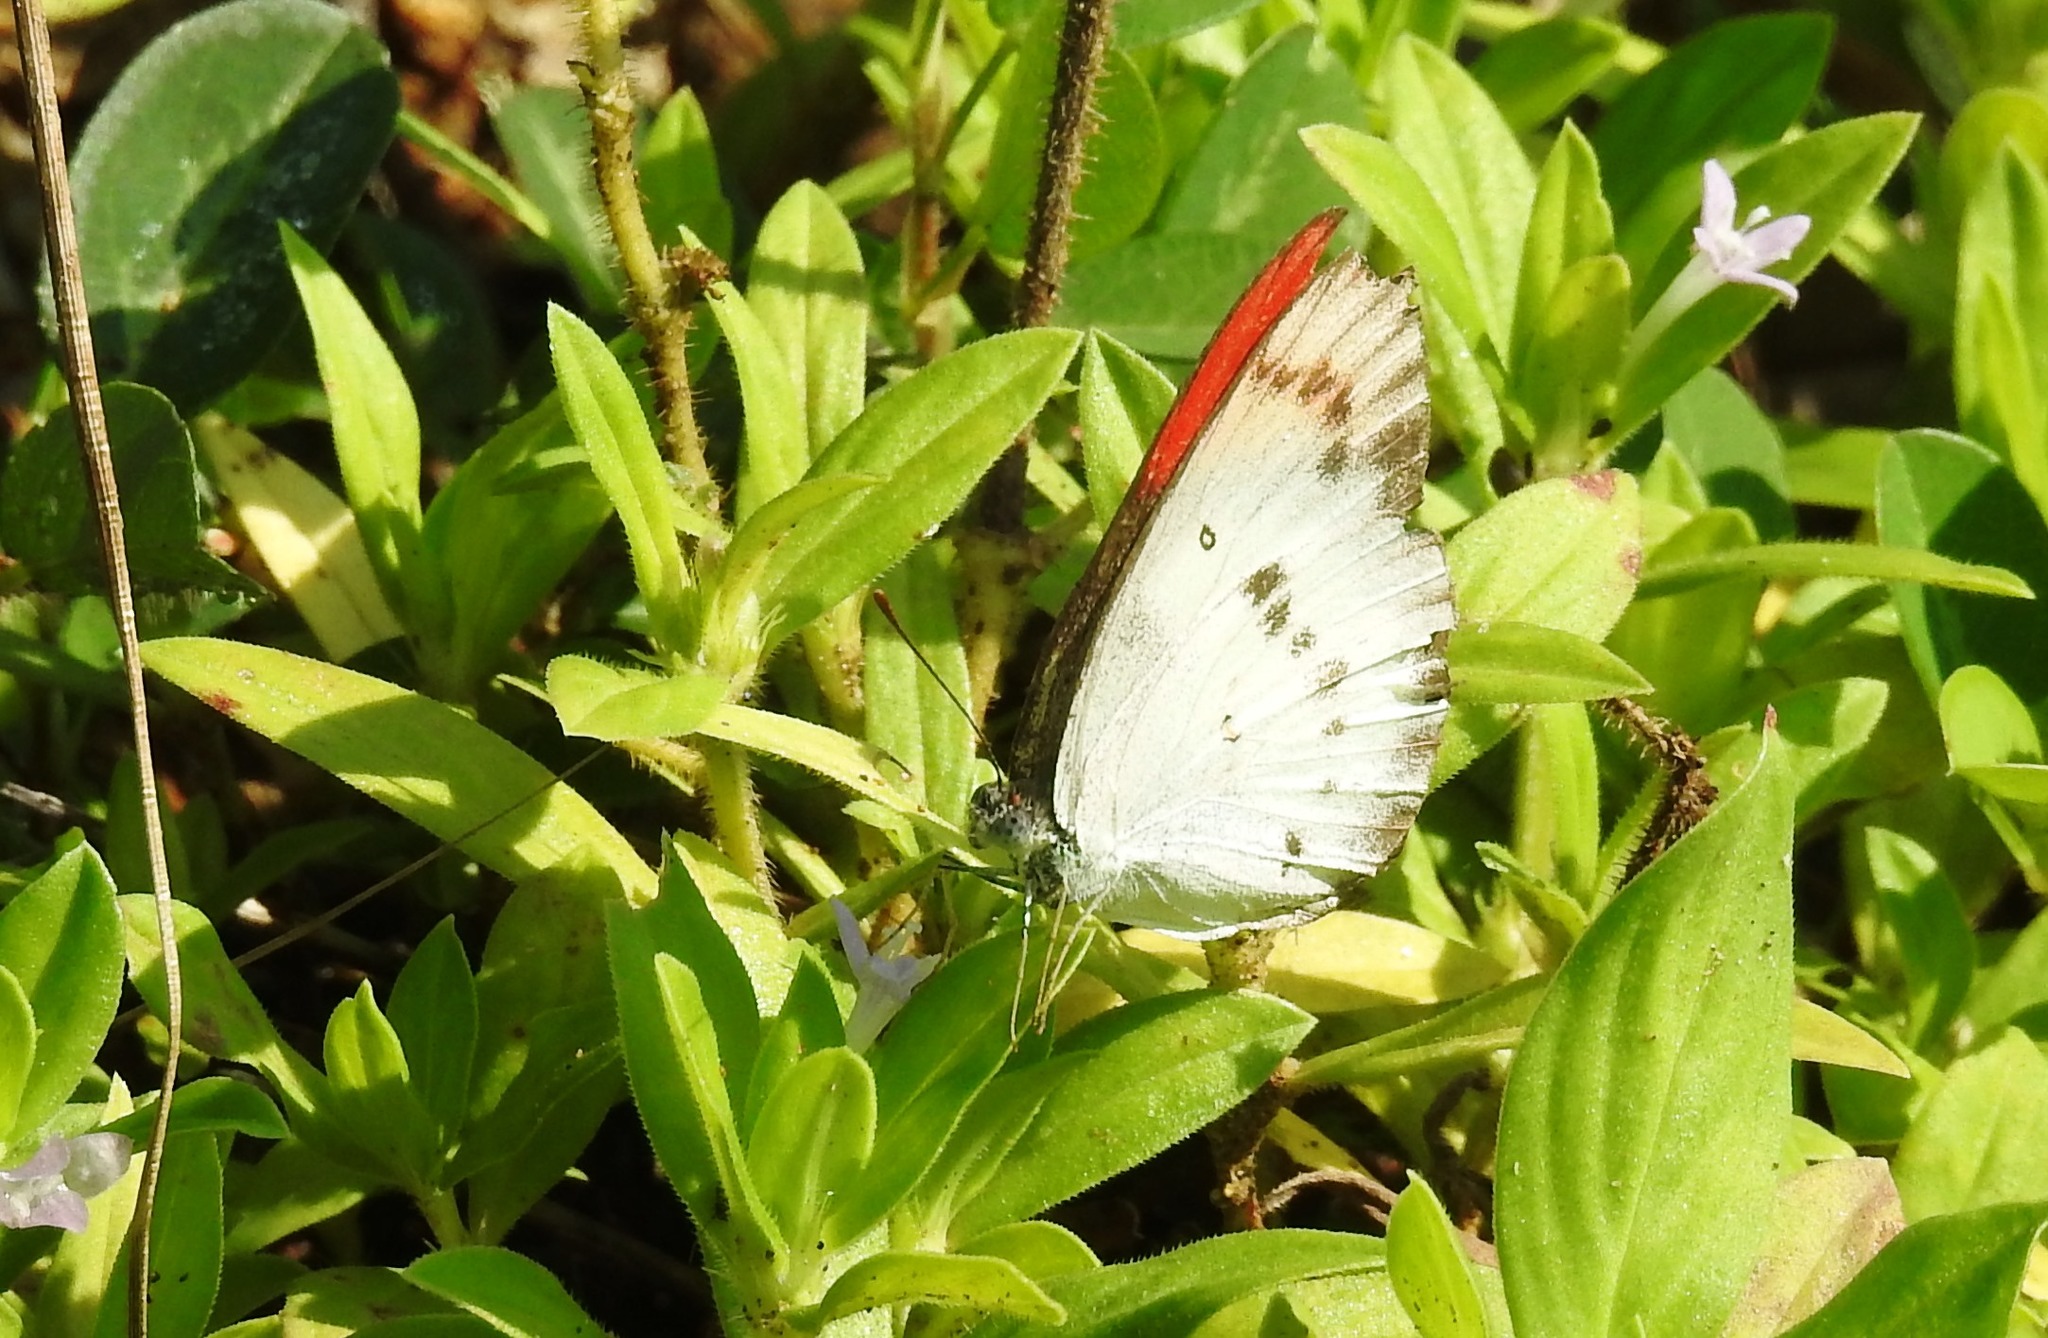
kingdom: Animalia
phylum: Arthropoda
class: Insecta
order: Lepidoptera
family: Pieridae
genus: Colotis
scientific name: Colotis danae
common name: Crimson tip
